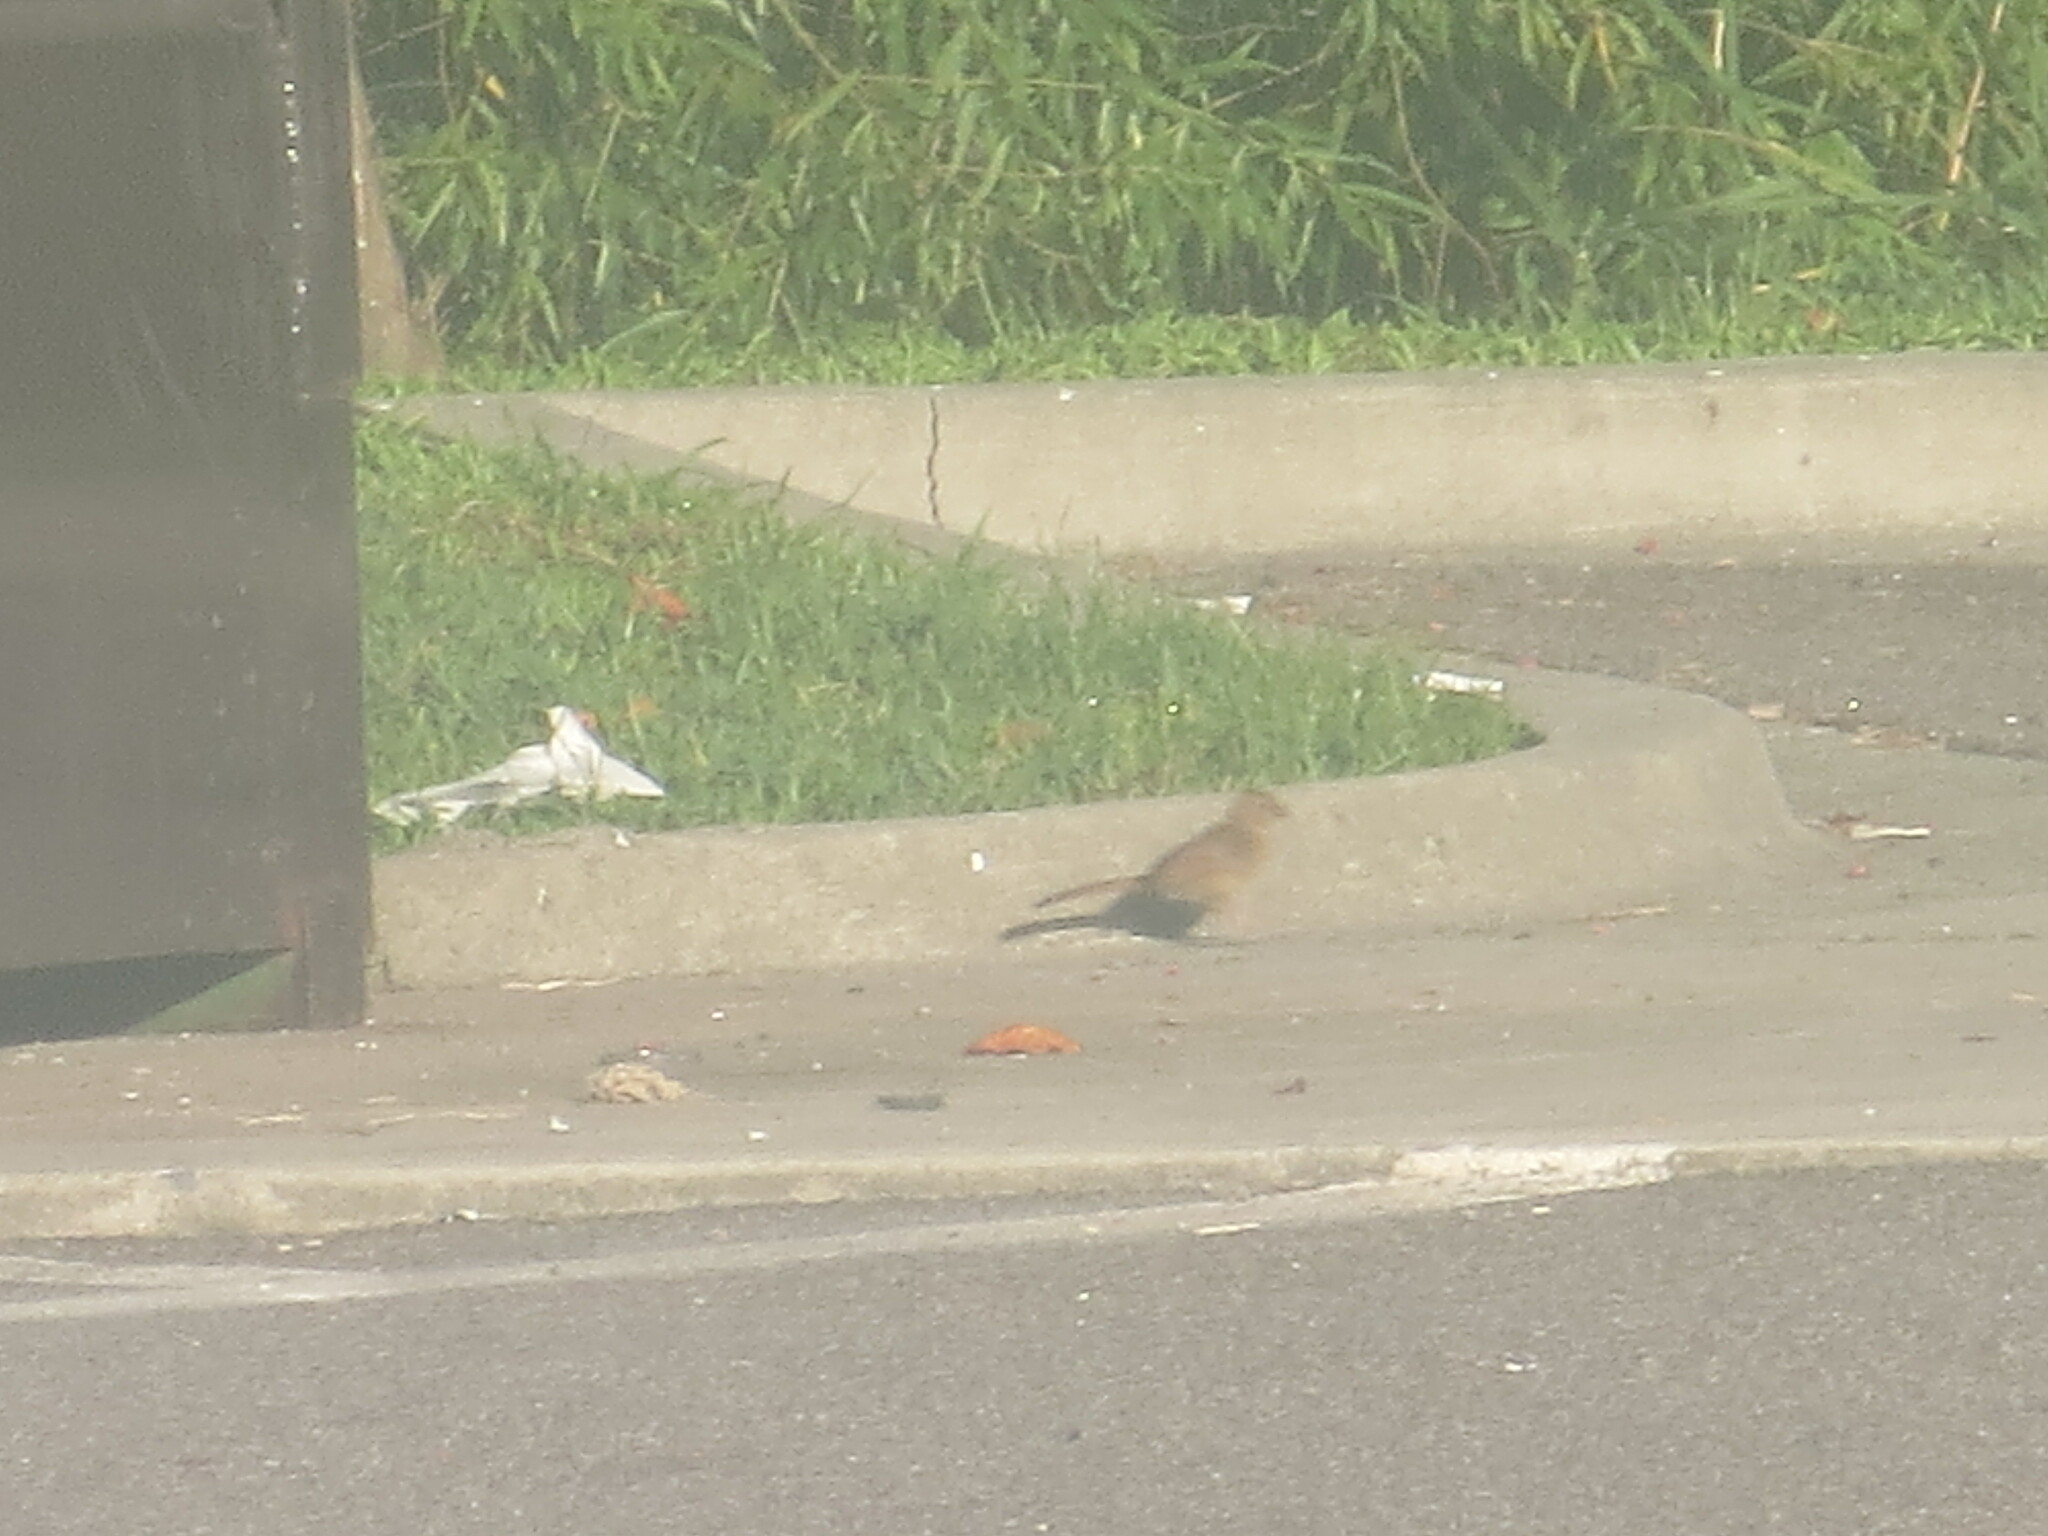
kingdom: Animalia
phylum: Chordata
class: Aves
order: Passeriformes
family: Cardinalidae
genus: Cardinalis
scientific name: Cardinalis cardinalis
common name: Northern cardinal
